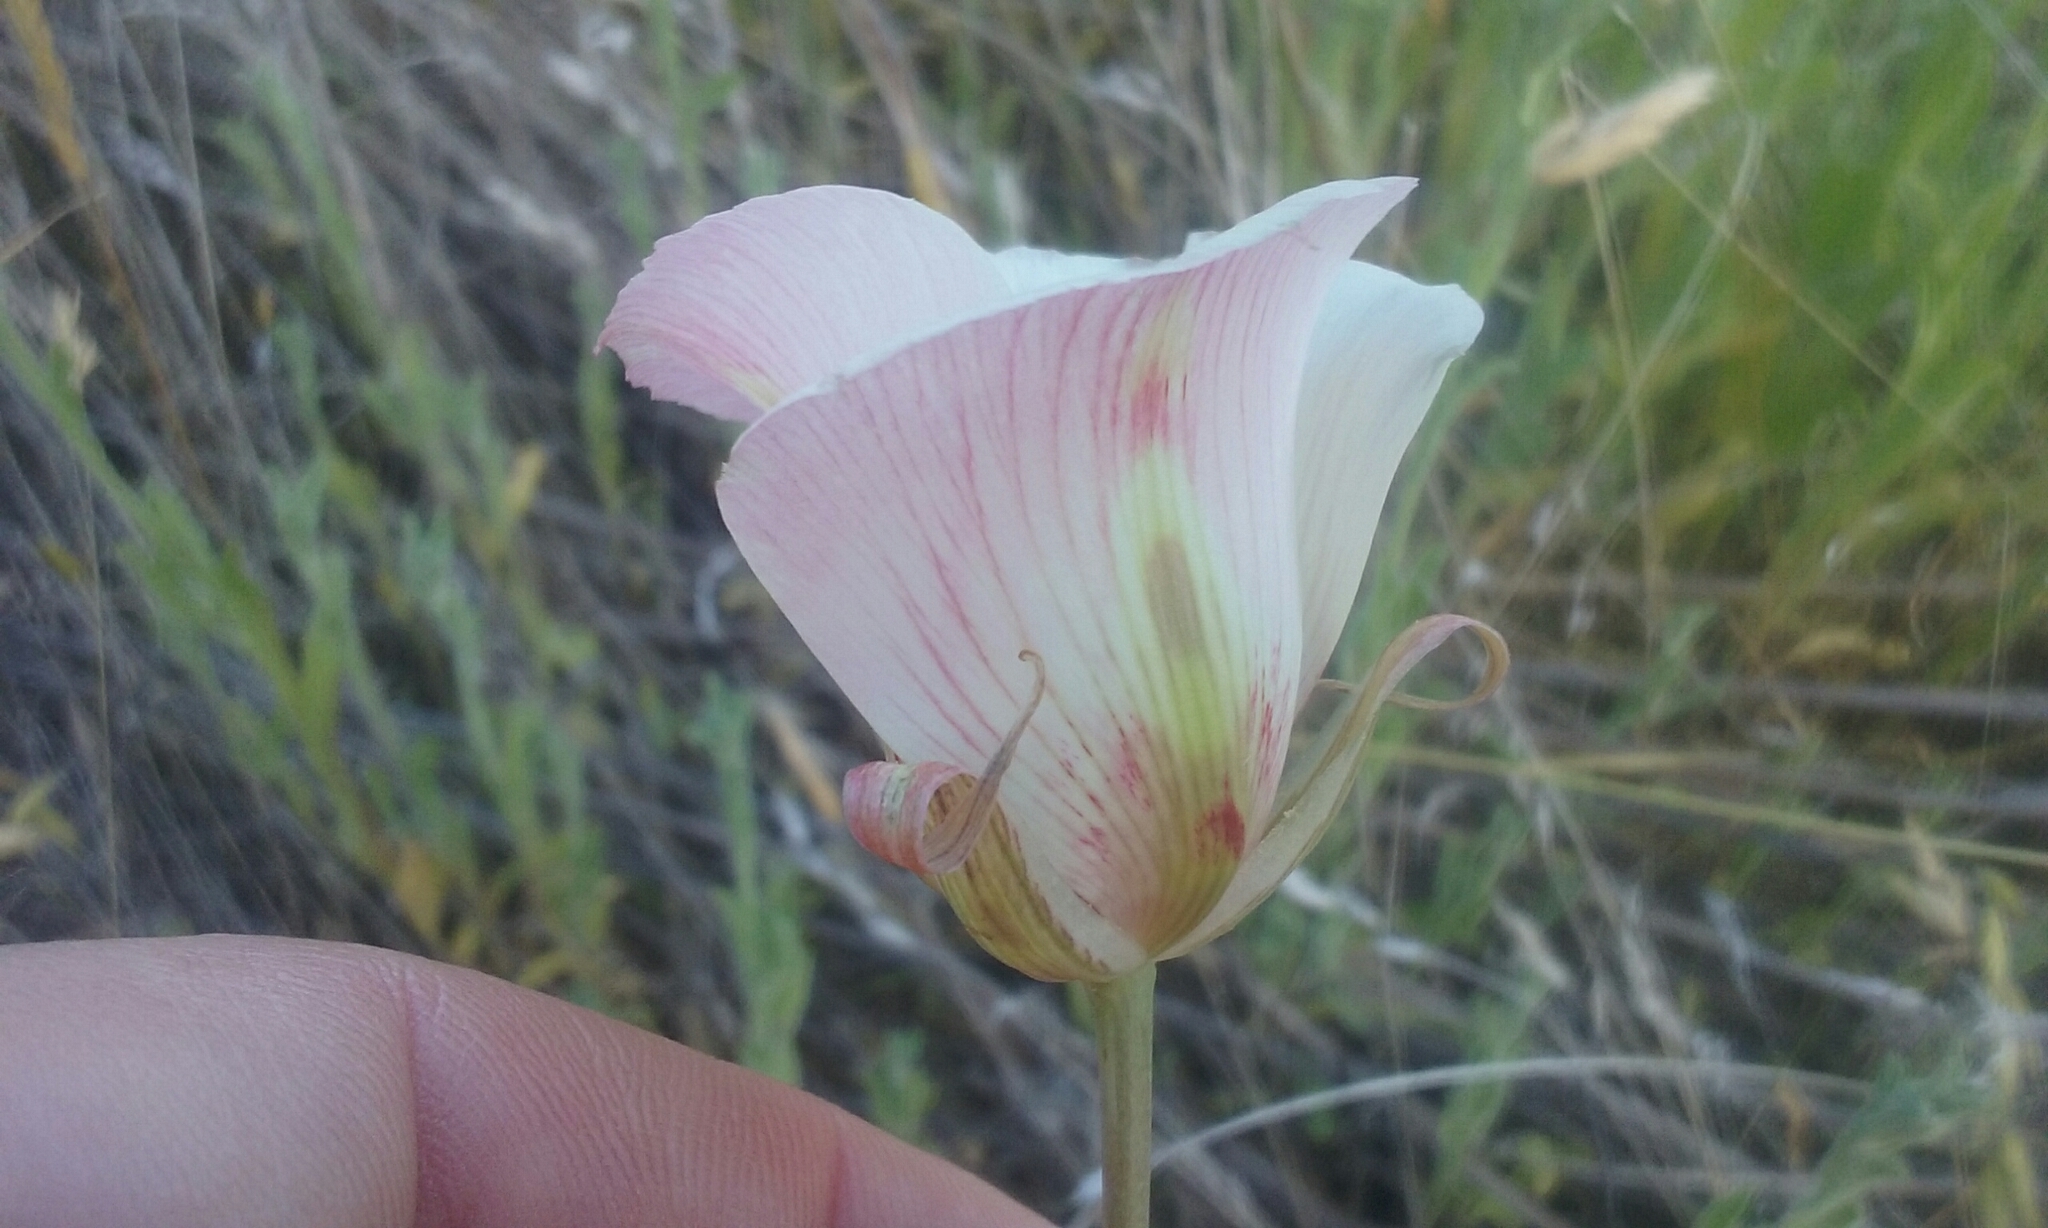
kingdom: Plantae
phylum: Tracheophyta
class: Liliopsida
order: Liliales
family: Liliaceae
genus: Calochortus
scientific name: Calochortus venustus
